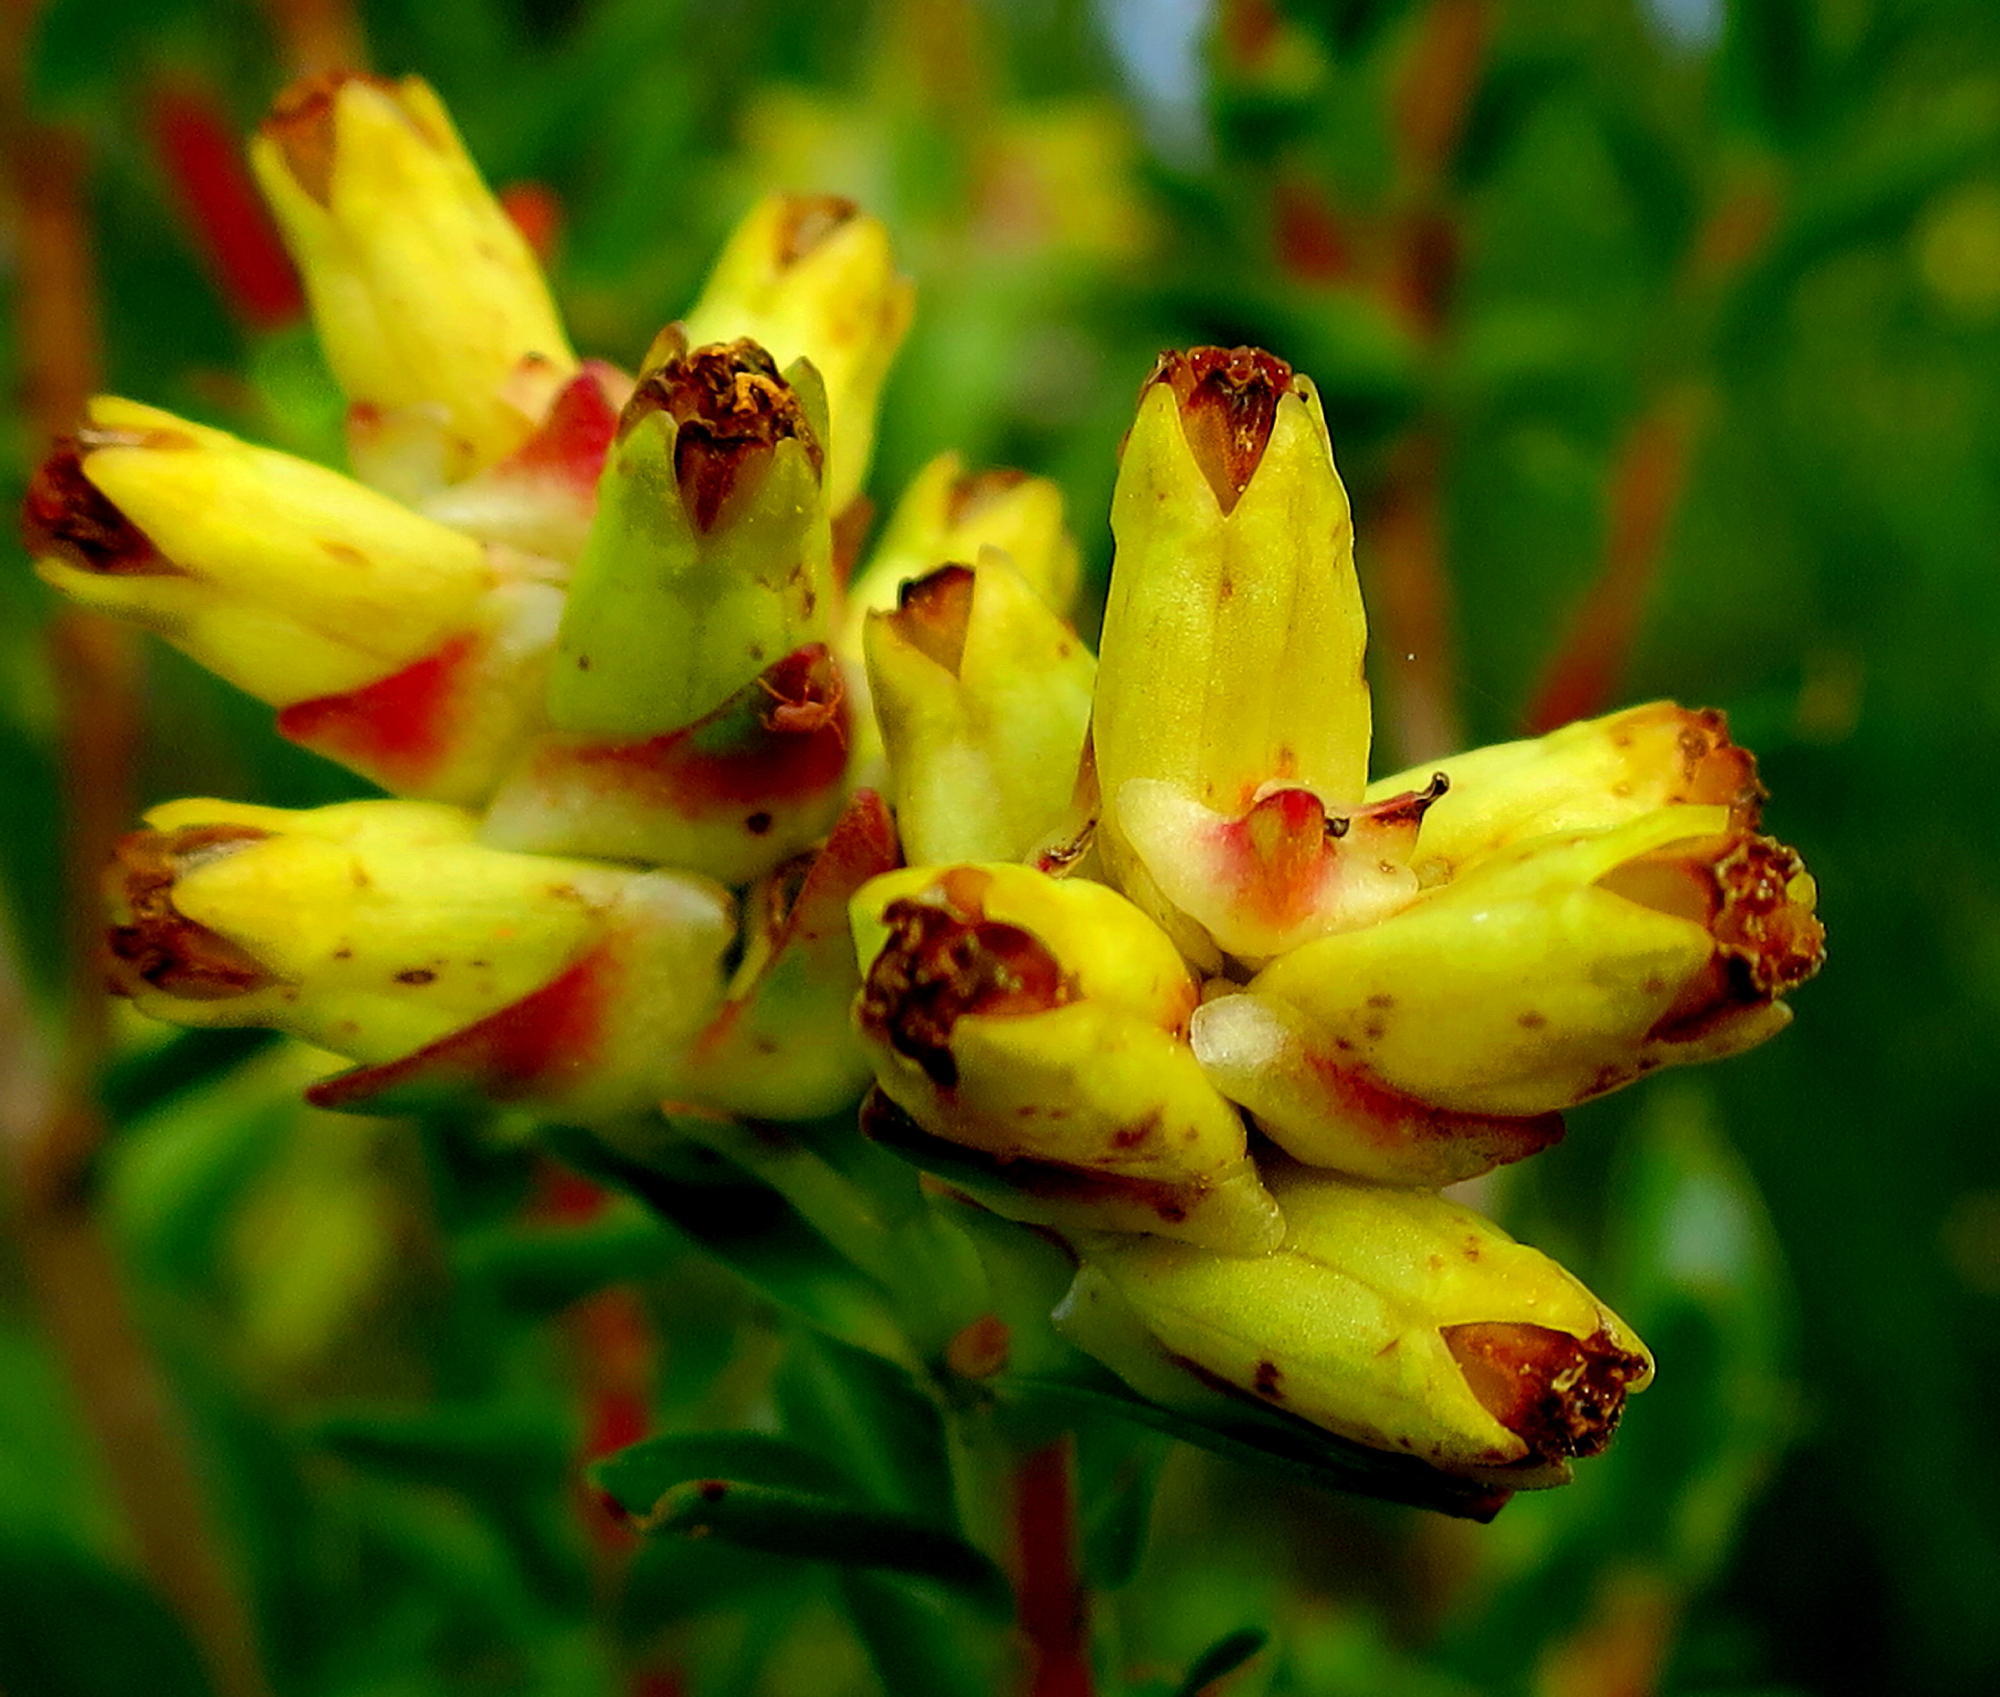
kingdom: Plantae
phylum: Tracheophyta
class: Magnoliopsida
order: Myrtales
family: Penaeaceae
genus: Penaea
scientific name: Penaea cneorum
